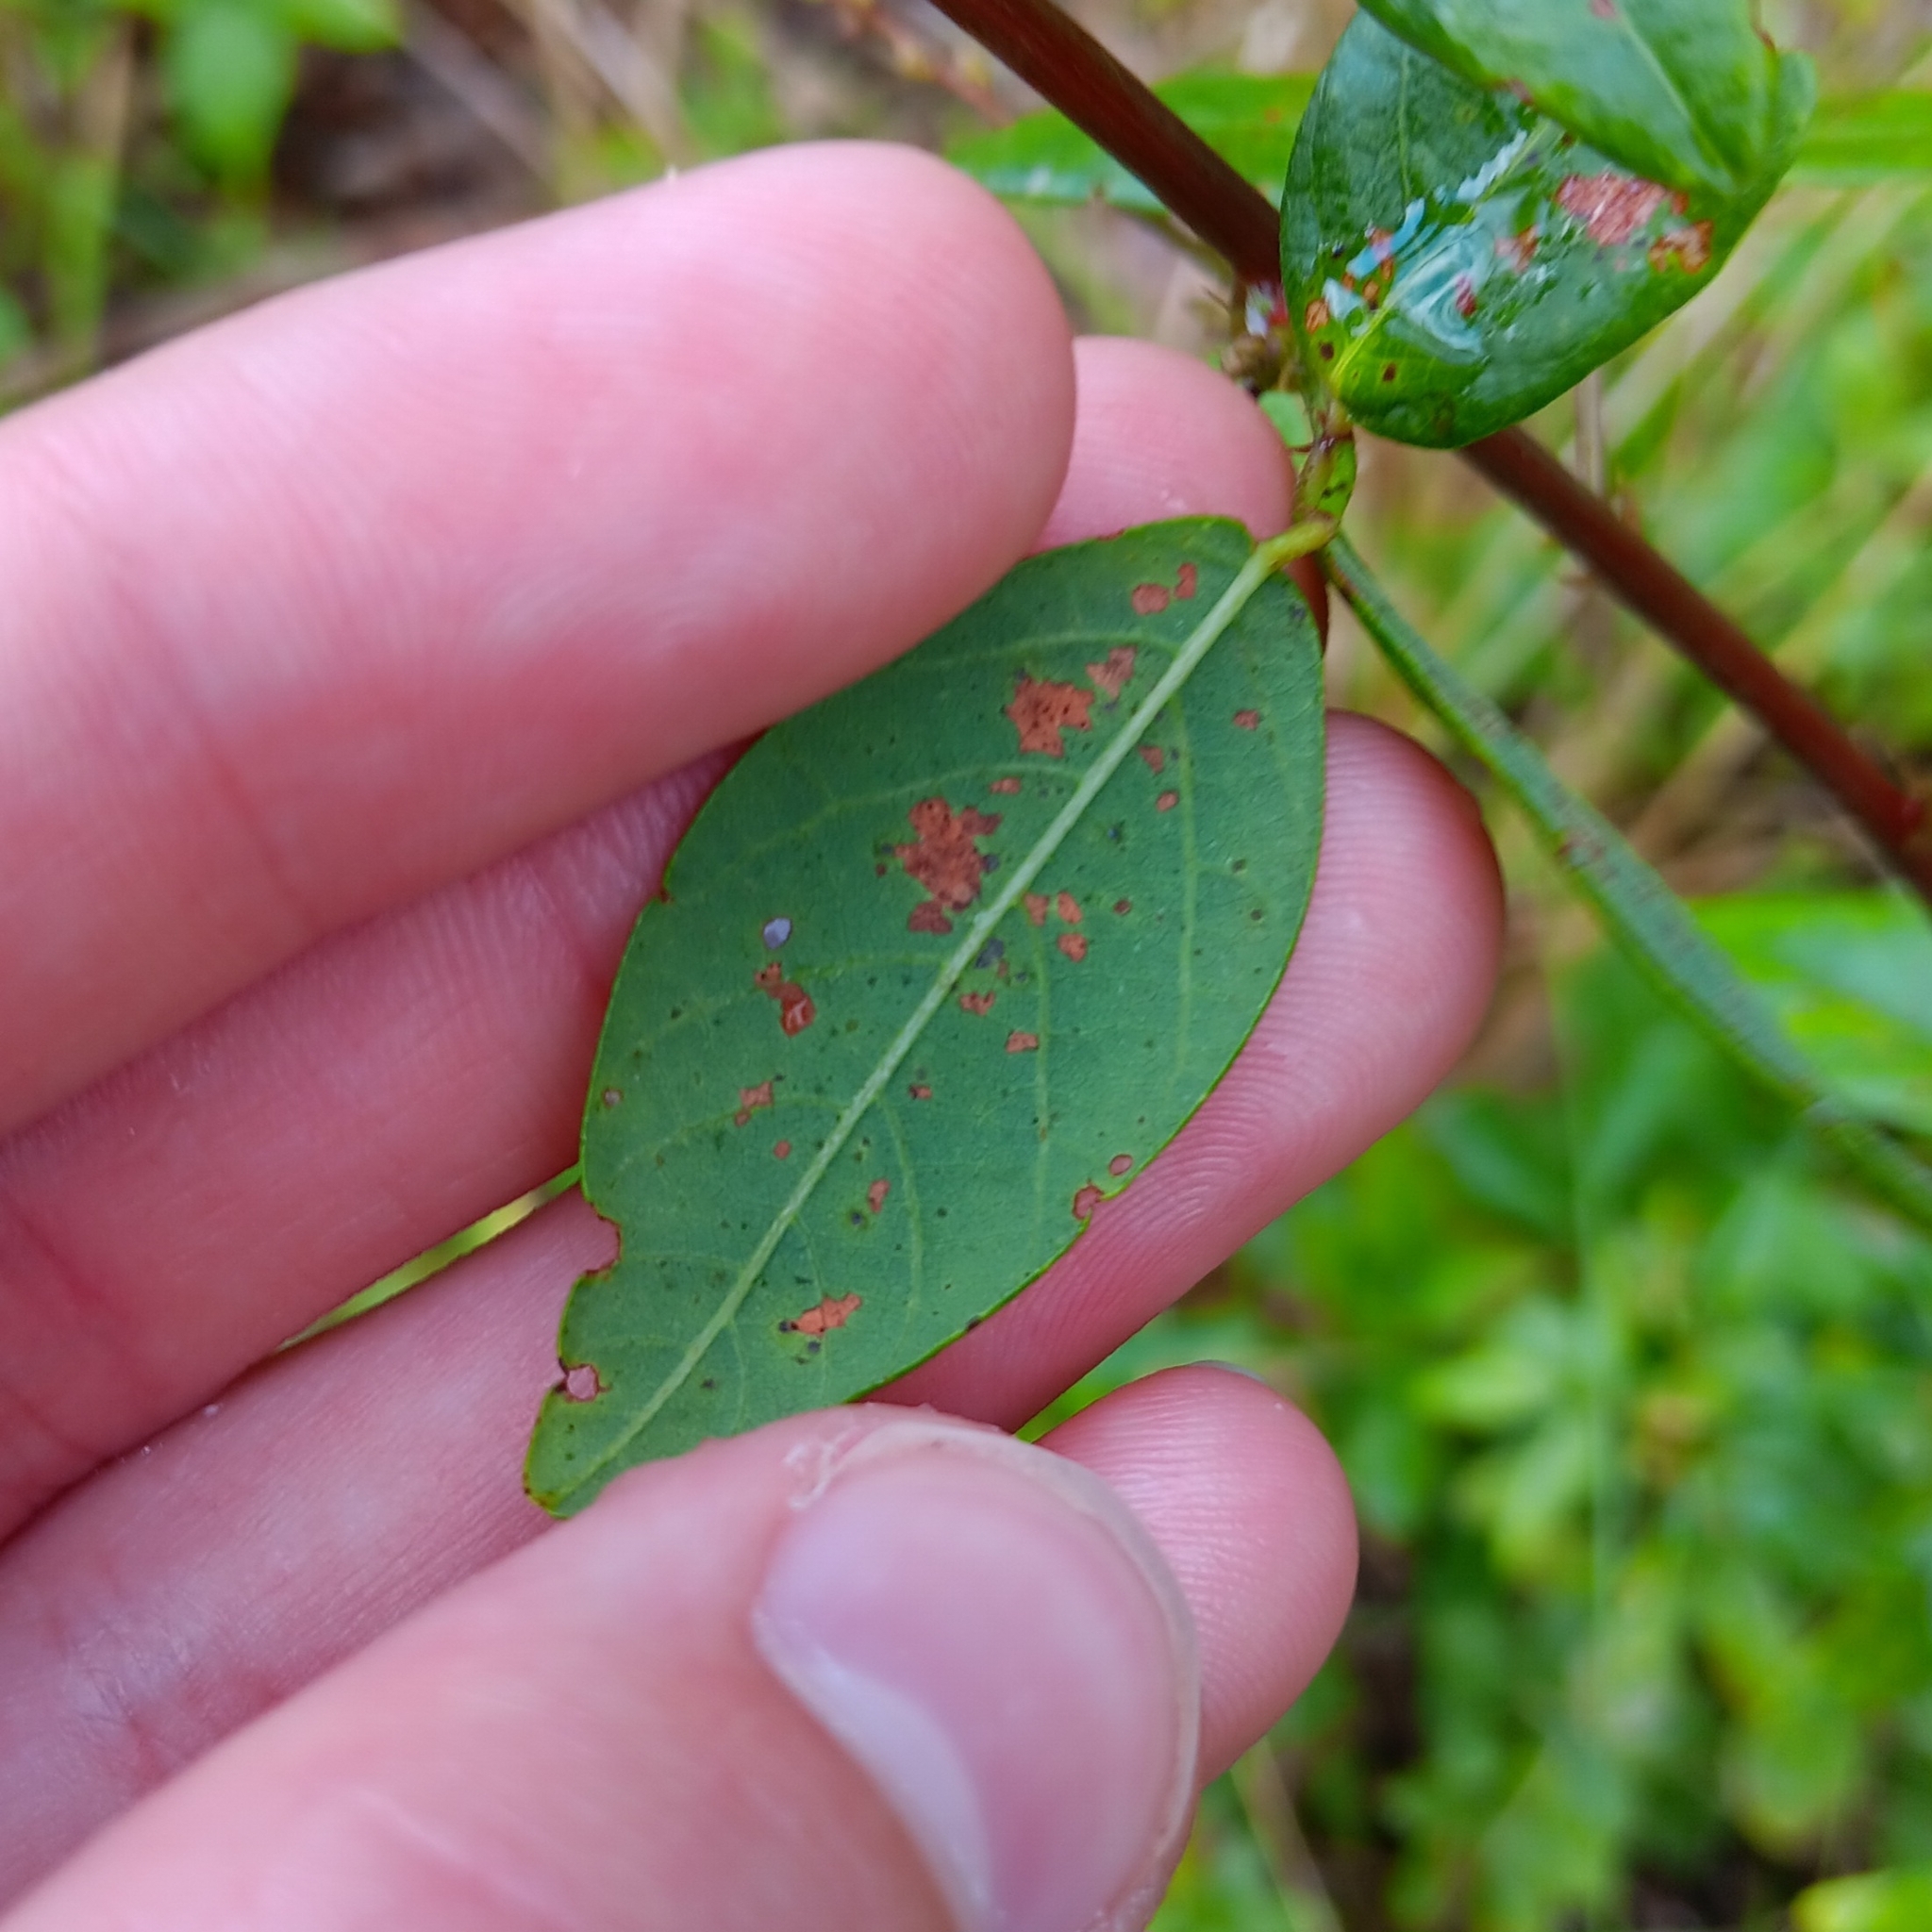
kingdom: Plantae
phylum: Tracheophyta
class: Magnoliopsida
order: Fabales
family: Fabaceae
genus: Desmodium
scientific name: Desmodium paniculatum
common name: Panicled tick-clover
